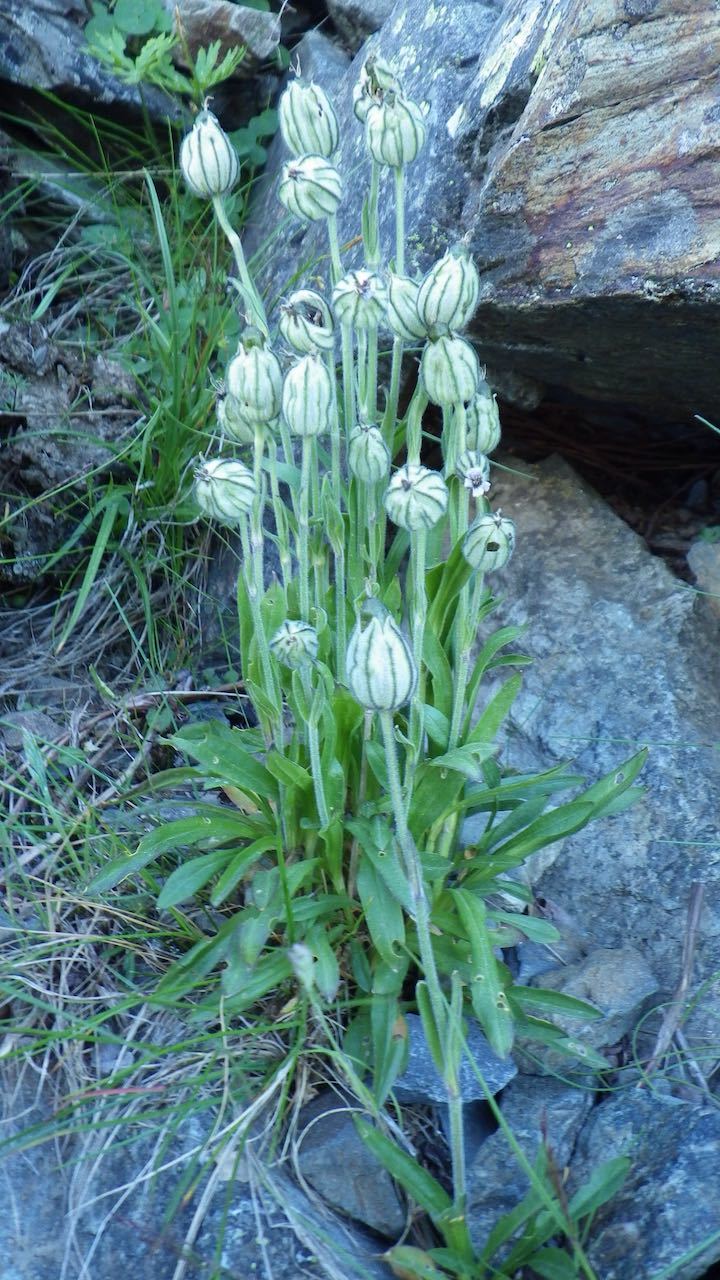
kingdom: Plantae
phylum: Tracheophyta
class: Magnoliopsida
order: Caryophyllales
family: Caryophyllaceae
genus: Silene
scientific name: Silene uralensis
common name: Nodding campion
